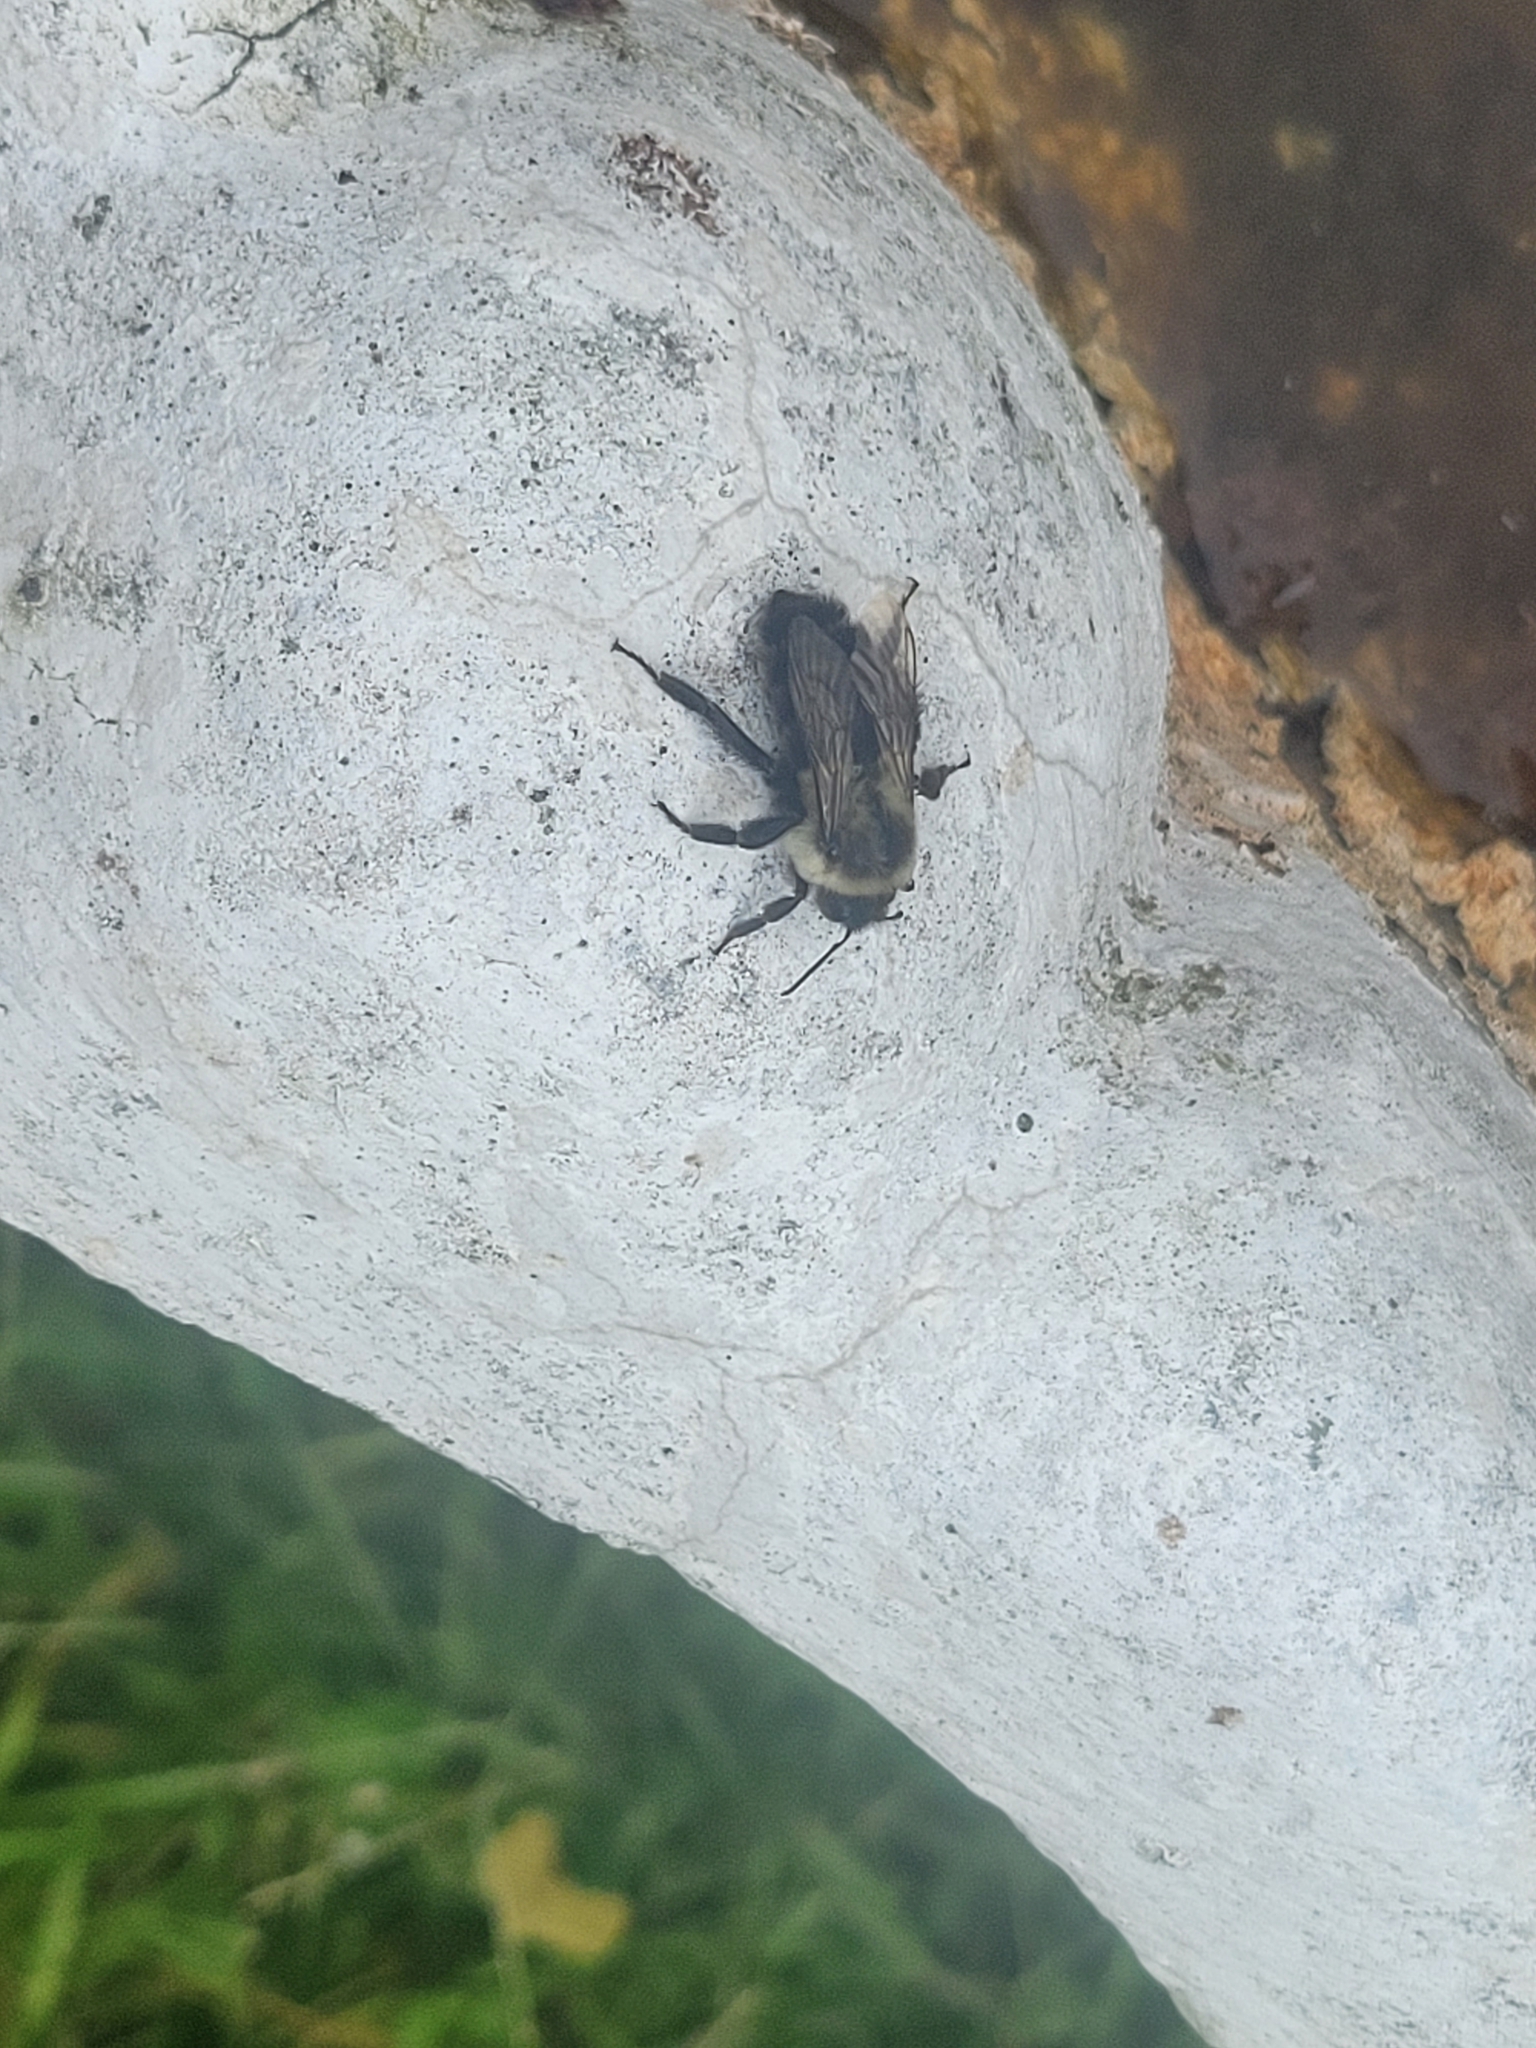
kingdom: Animalia
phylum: Arthropoda
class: Insecta
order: Hymenoptera
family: Apidae
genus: Bombus
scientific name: Bombus impatiens
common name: Common eastern bumble bee
